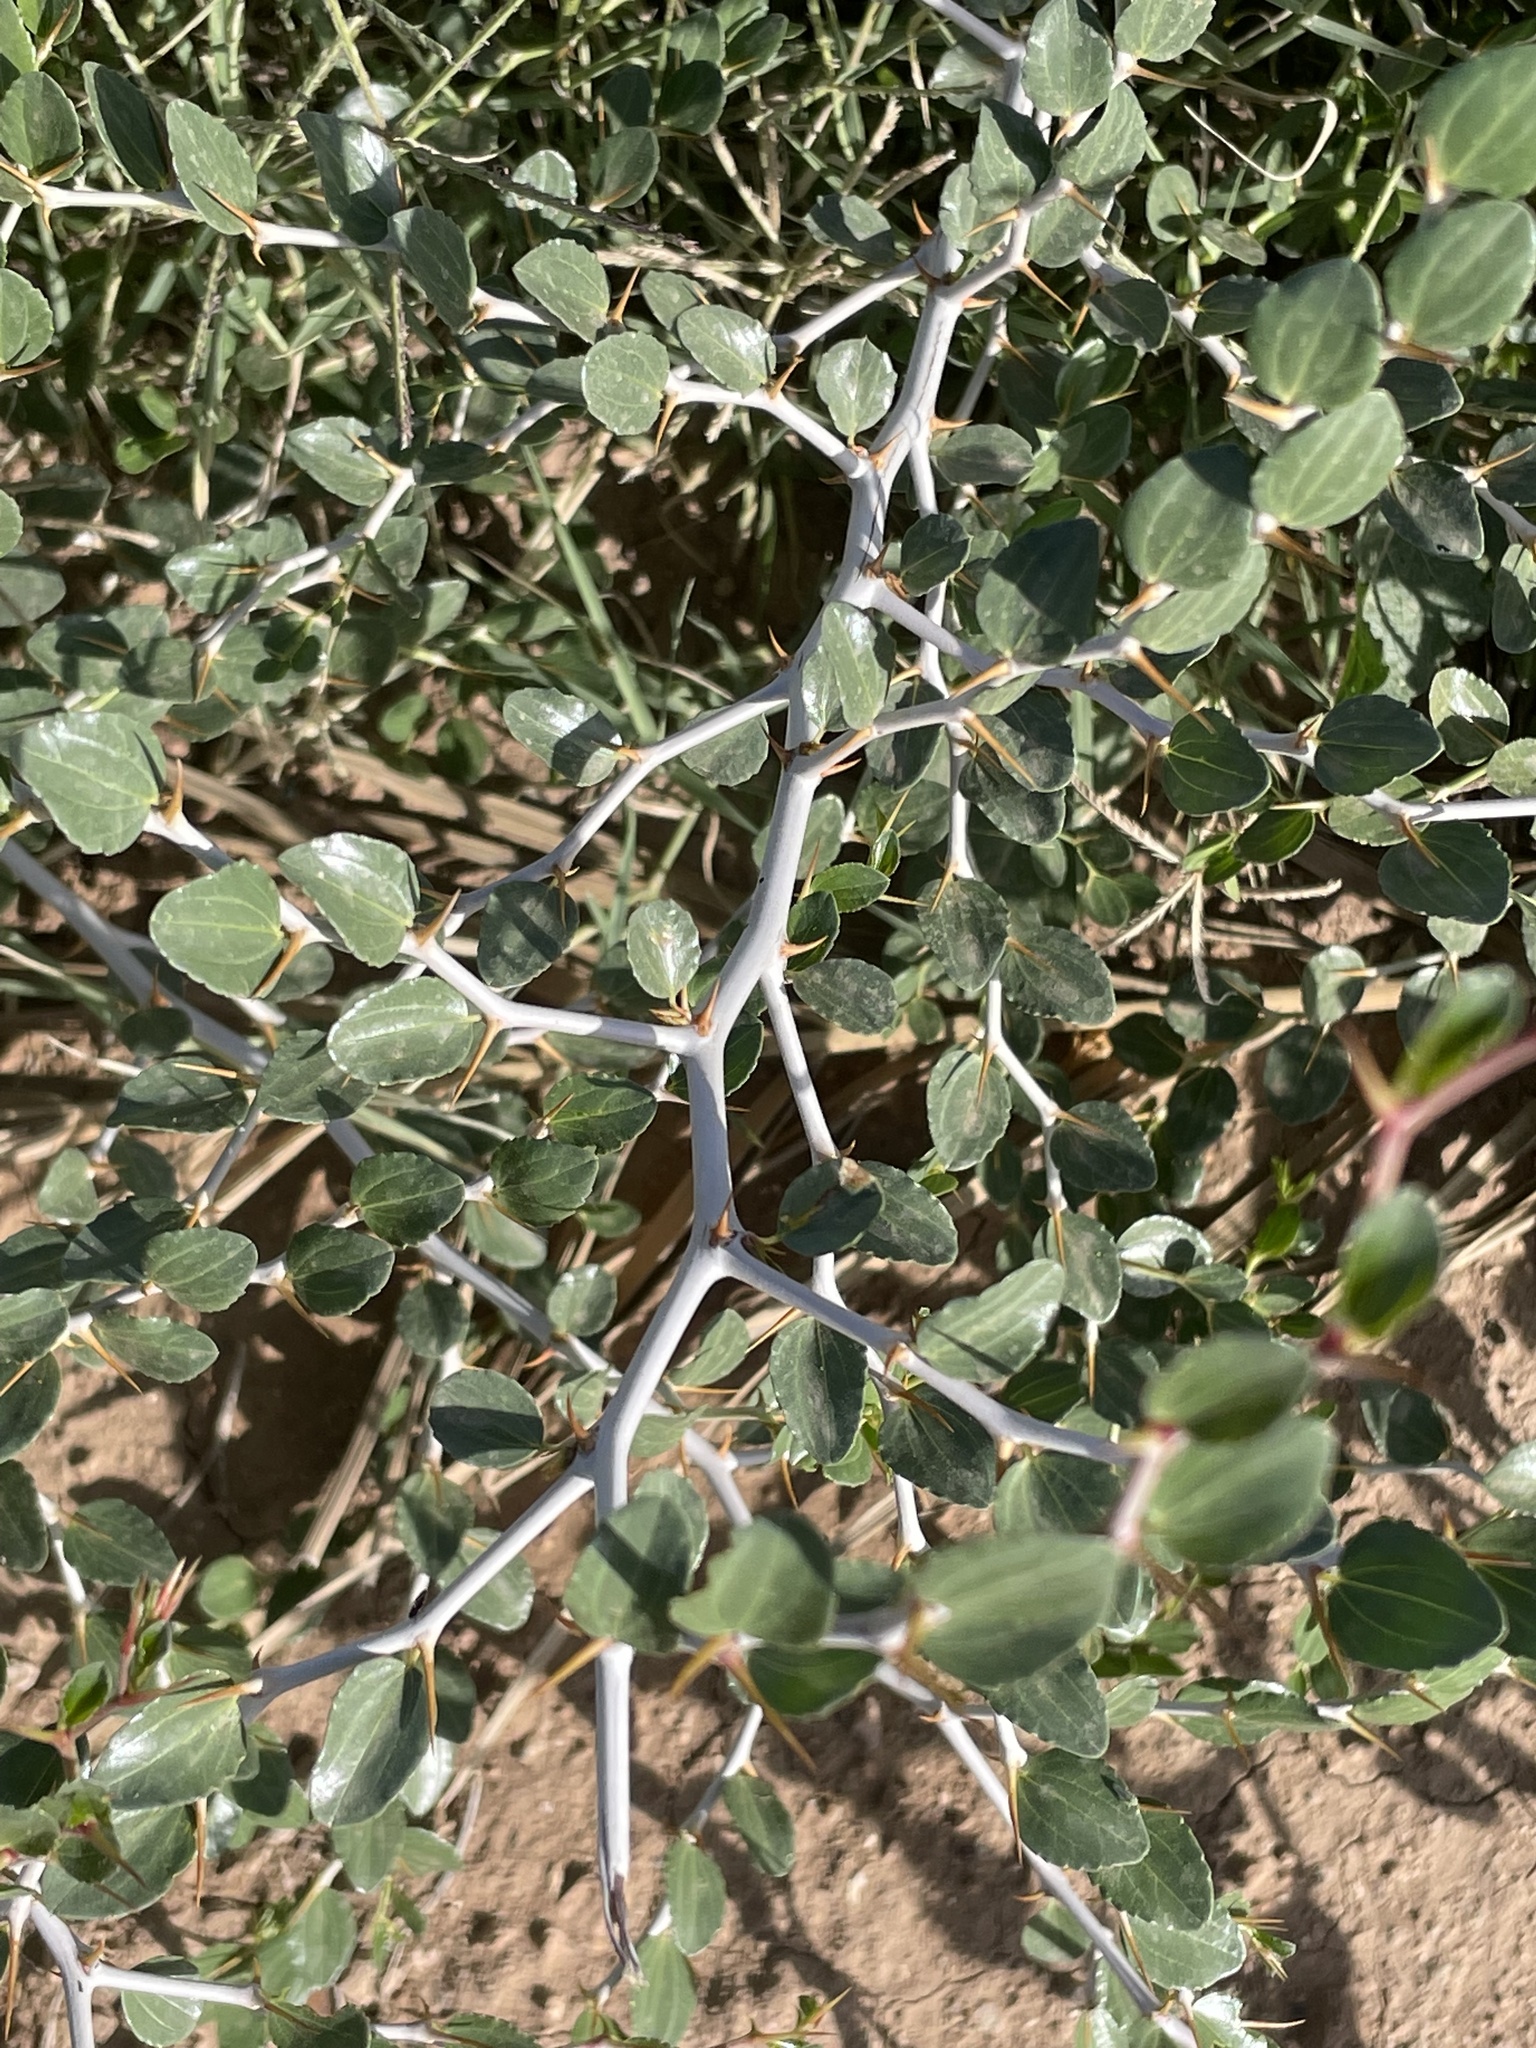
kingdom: Plantae
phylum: Tracheophyta
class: Magnoliopsida
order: Rosales
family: Rhamnaceae
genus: Ziziphus
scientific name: Ziziphus lotus
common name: Lotus
